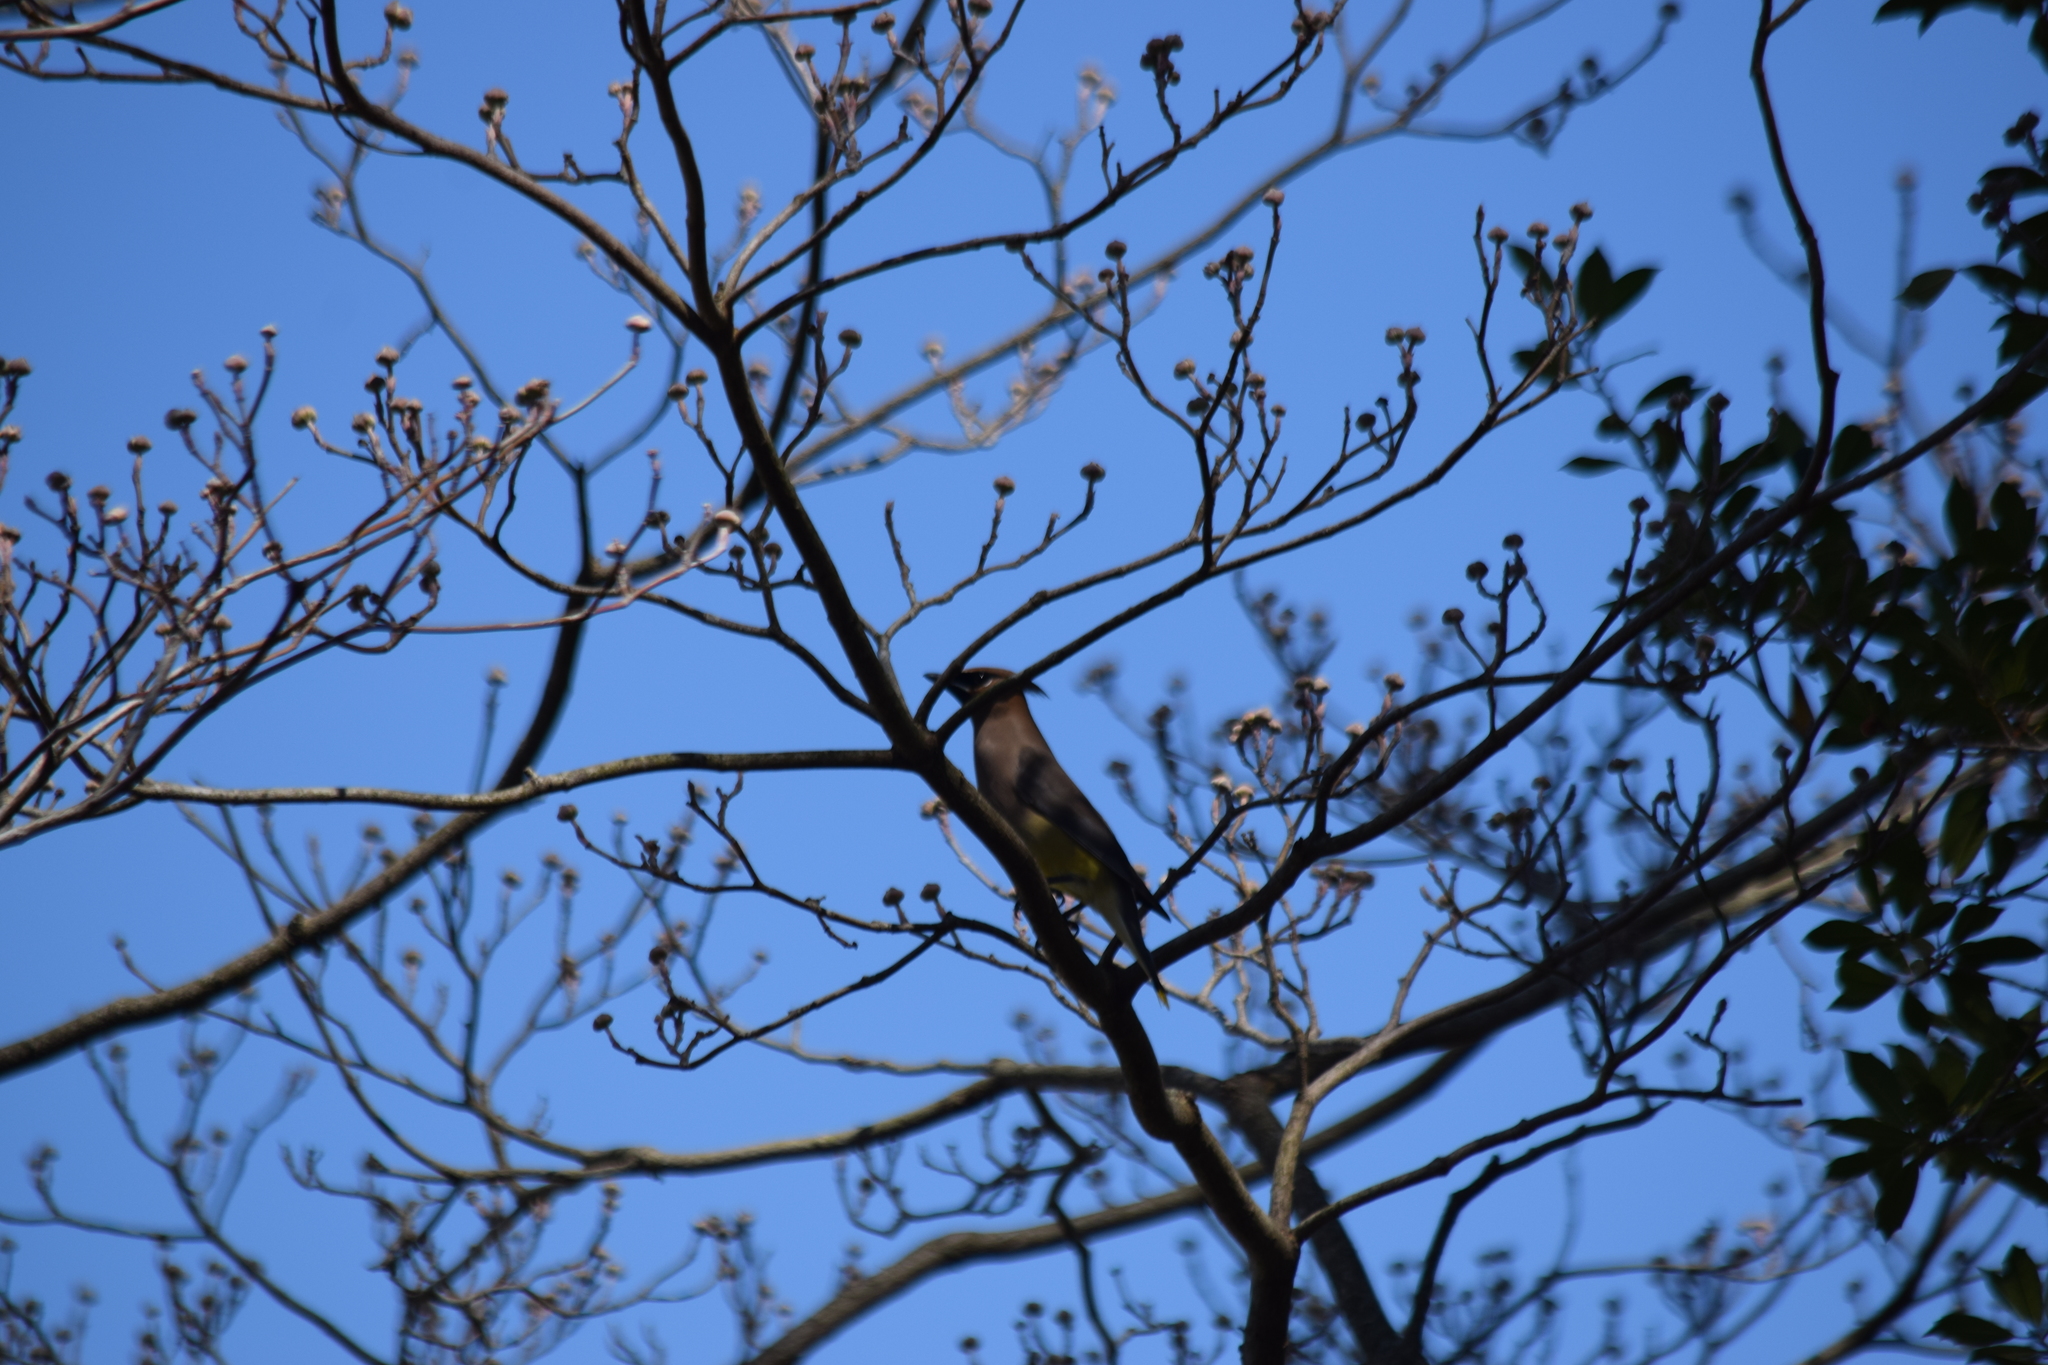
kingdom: Animalia
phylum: Chordata
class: Aves
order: Passeriformes
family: Bombycillidae
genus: Bombycilla
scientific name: Bombycilla cedrorum
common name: Cedar waxwing
